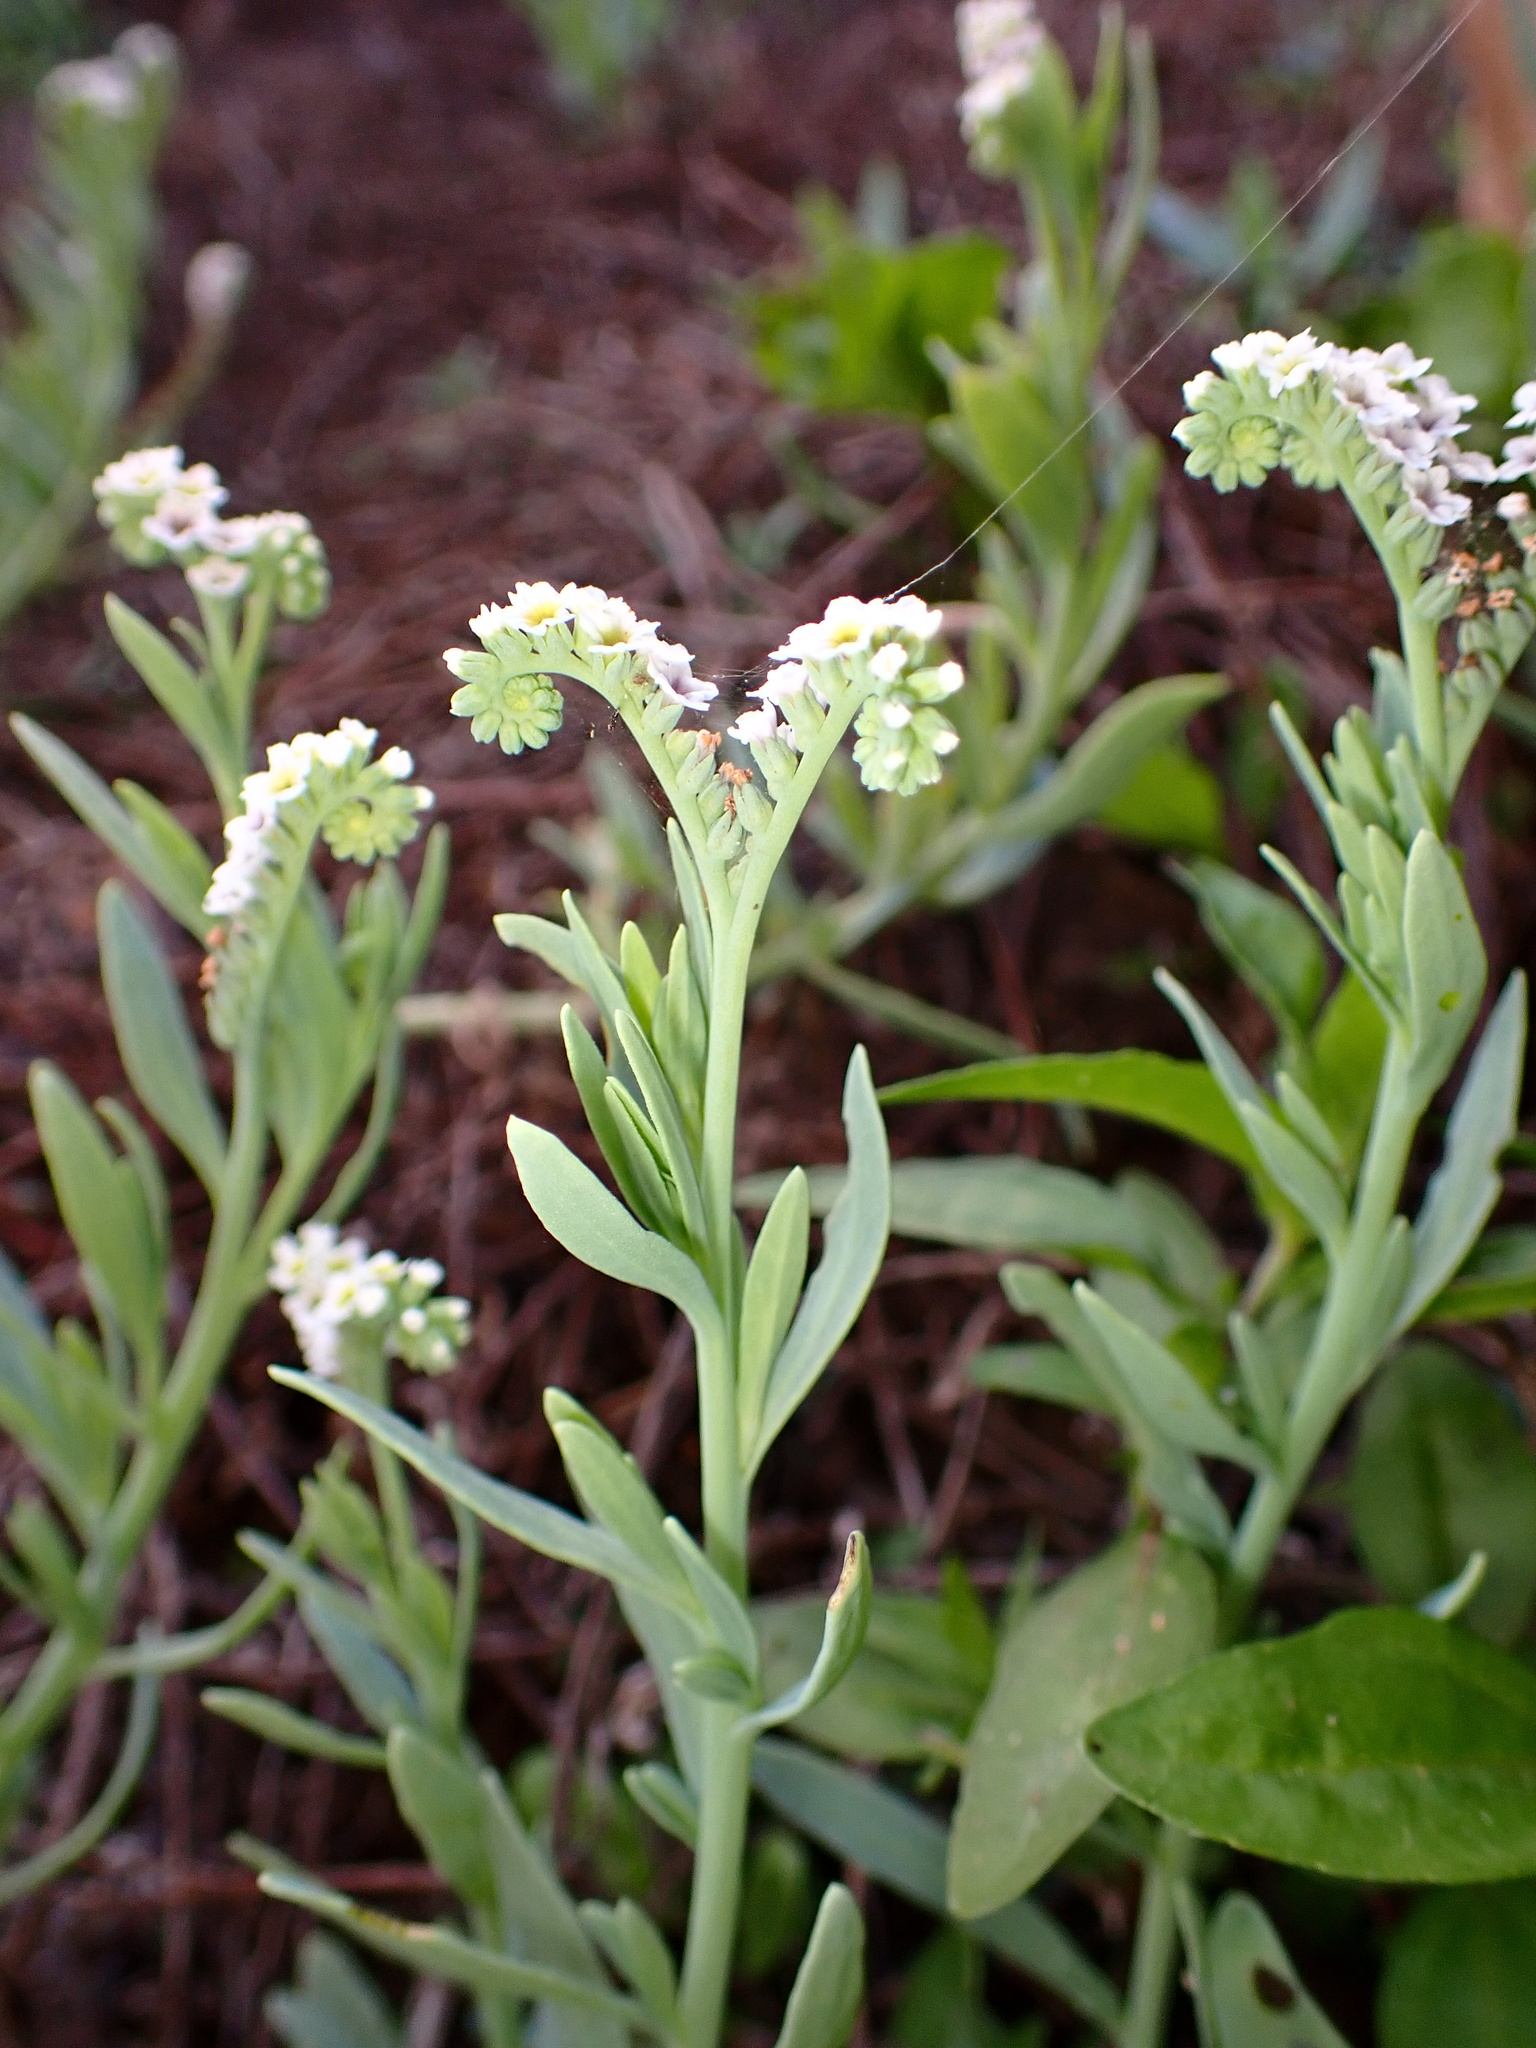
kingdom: Plantae
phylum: Tracheophyta
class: Magnoliopsida
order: Boraginales
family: Heliotropiaceae
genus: Heliotropium
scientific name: Heliotropium curassavicum
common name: Seaside heliotrope
